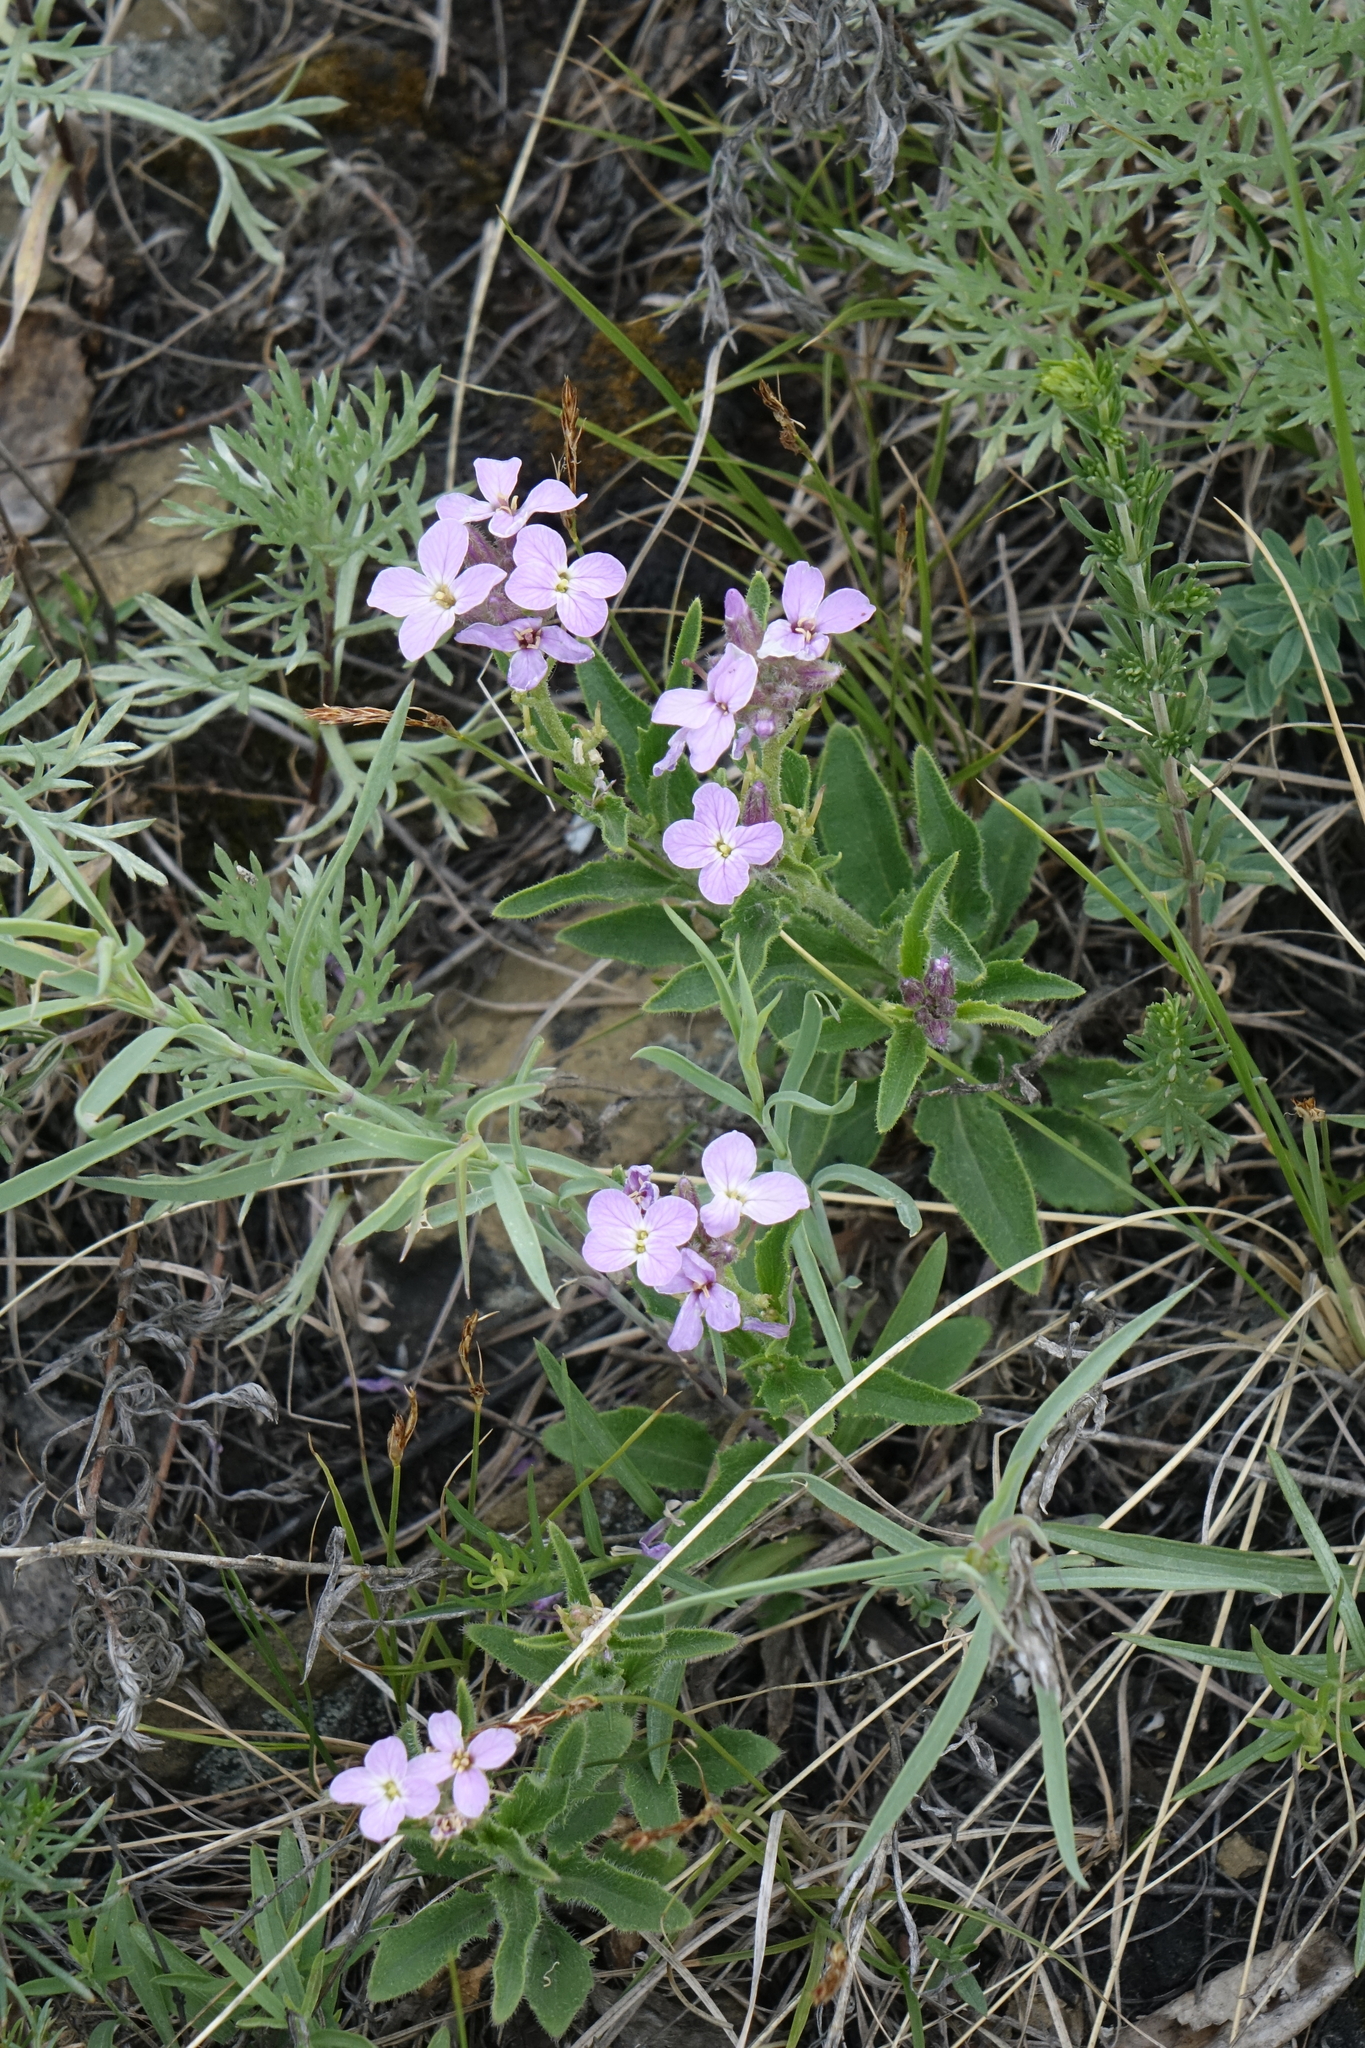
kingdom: Plantae
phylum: Tracheophyta
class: Magnoliopsida
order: Brassicales
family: Brassicaceae
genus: Clausia
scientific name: Clausia aprica
